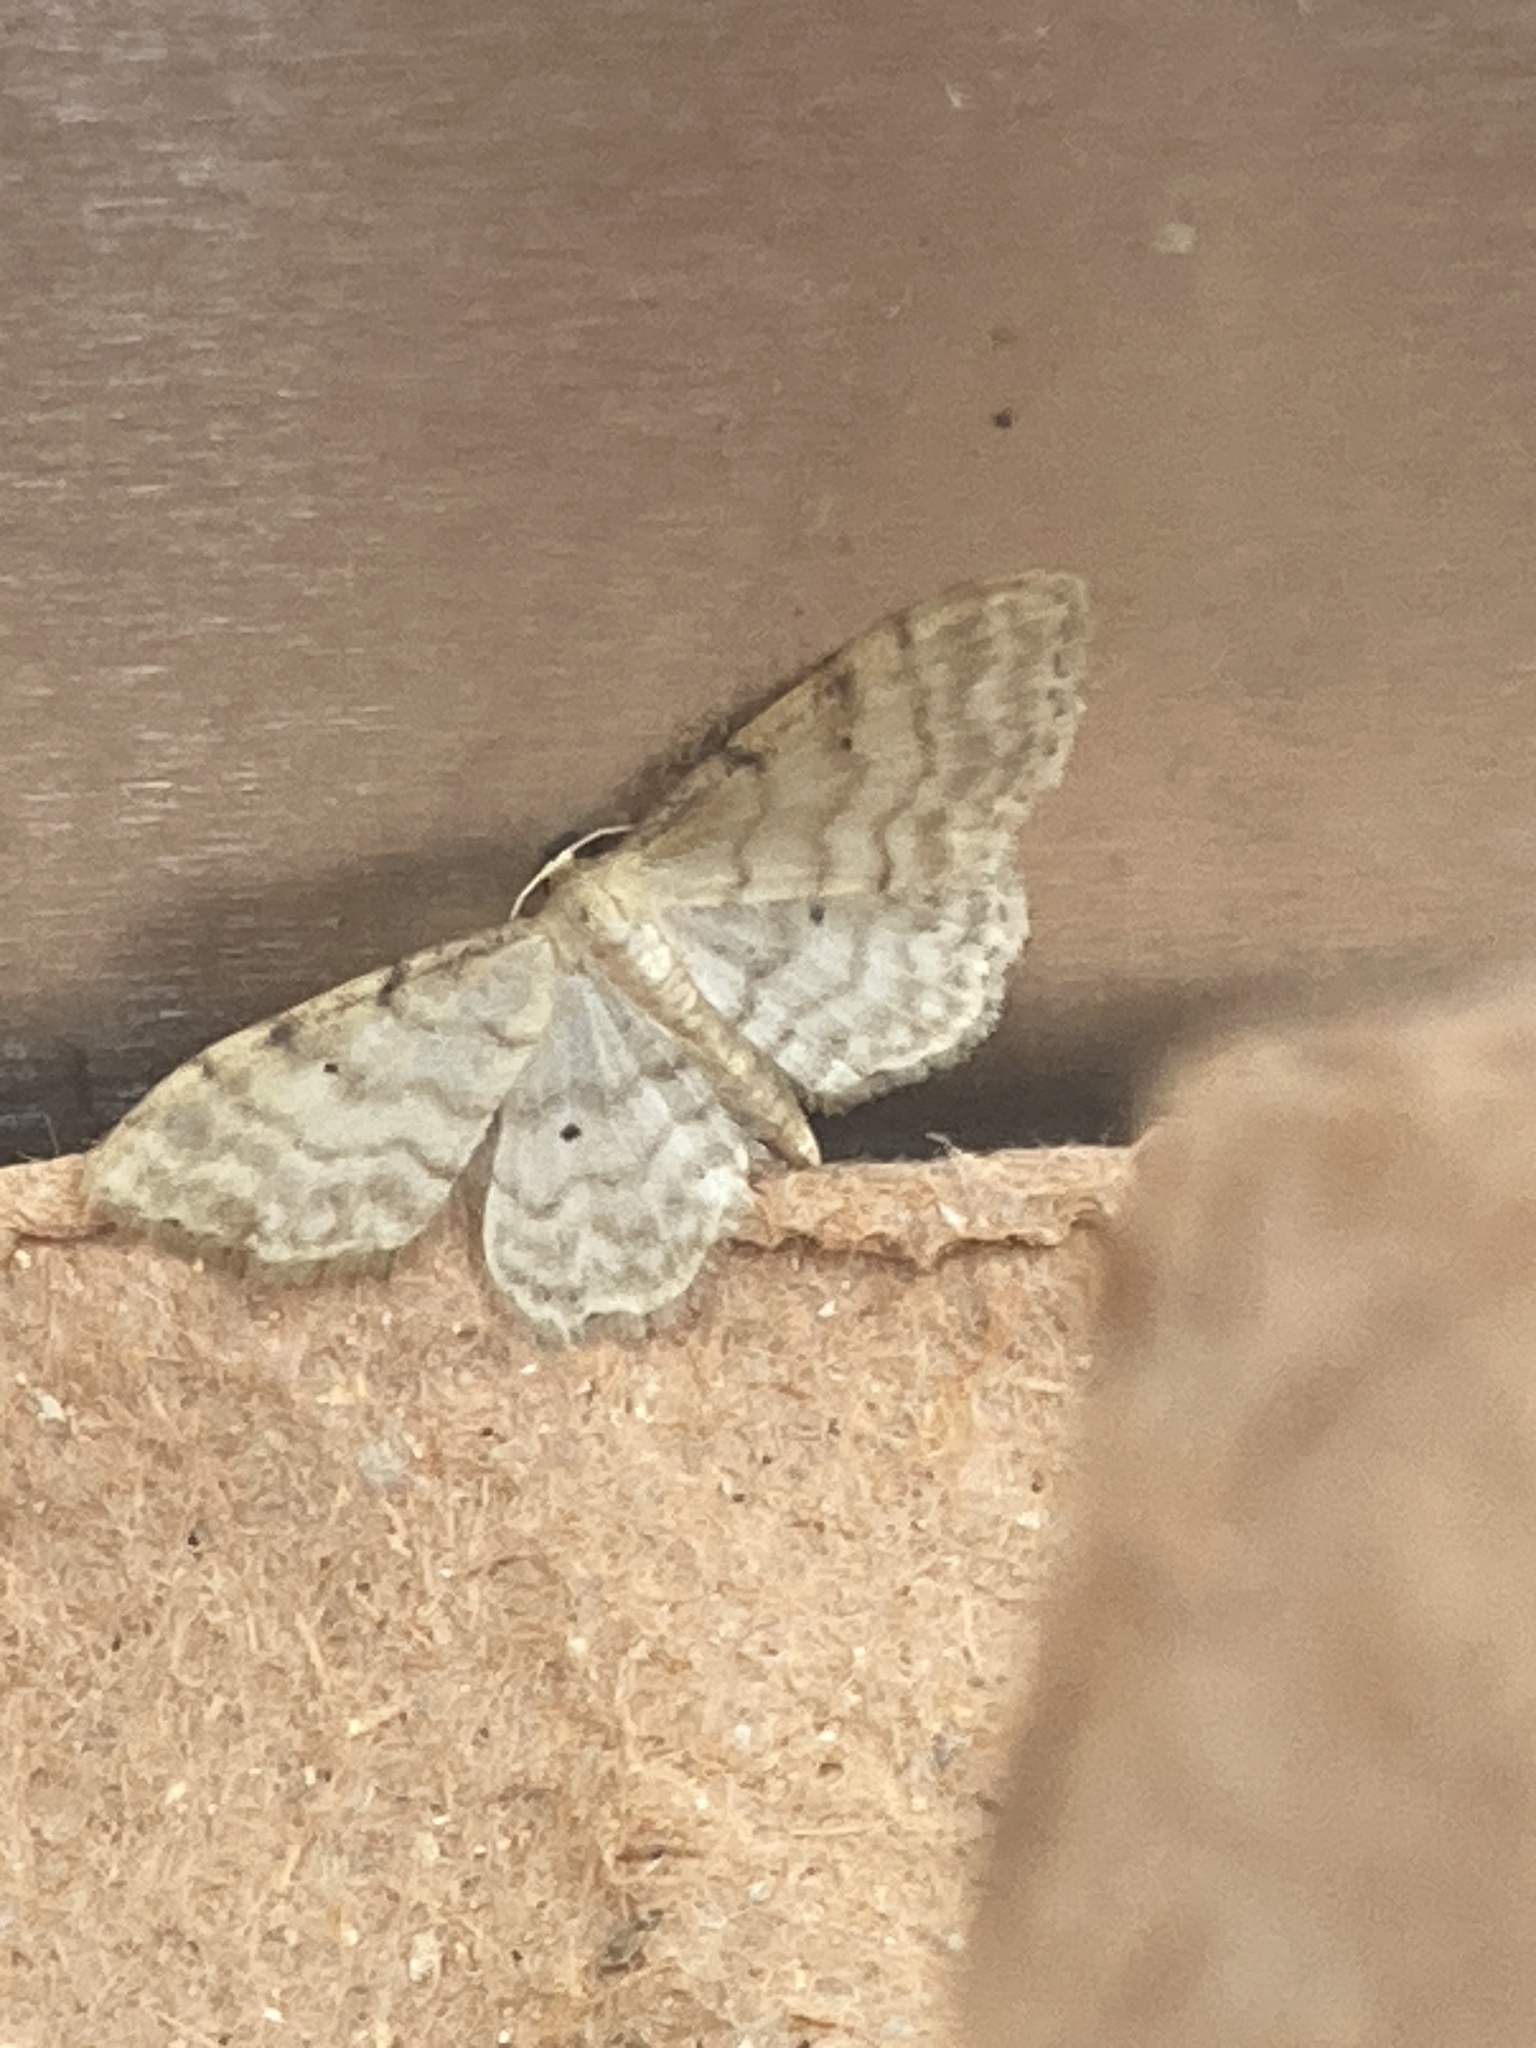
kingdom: Animalia
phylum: Arthropoda
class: Insecta
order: Lepidoptera
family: Geometridae
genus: Idaea
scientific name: Idaea fuscovenosa
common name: Dwarf cream wave
